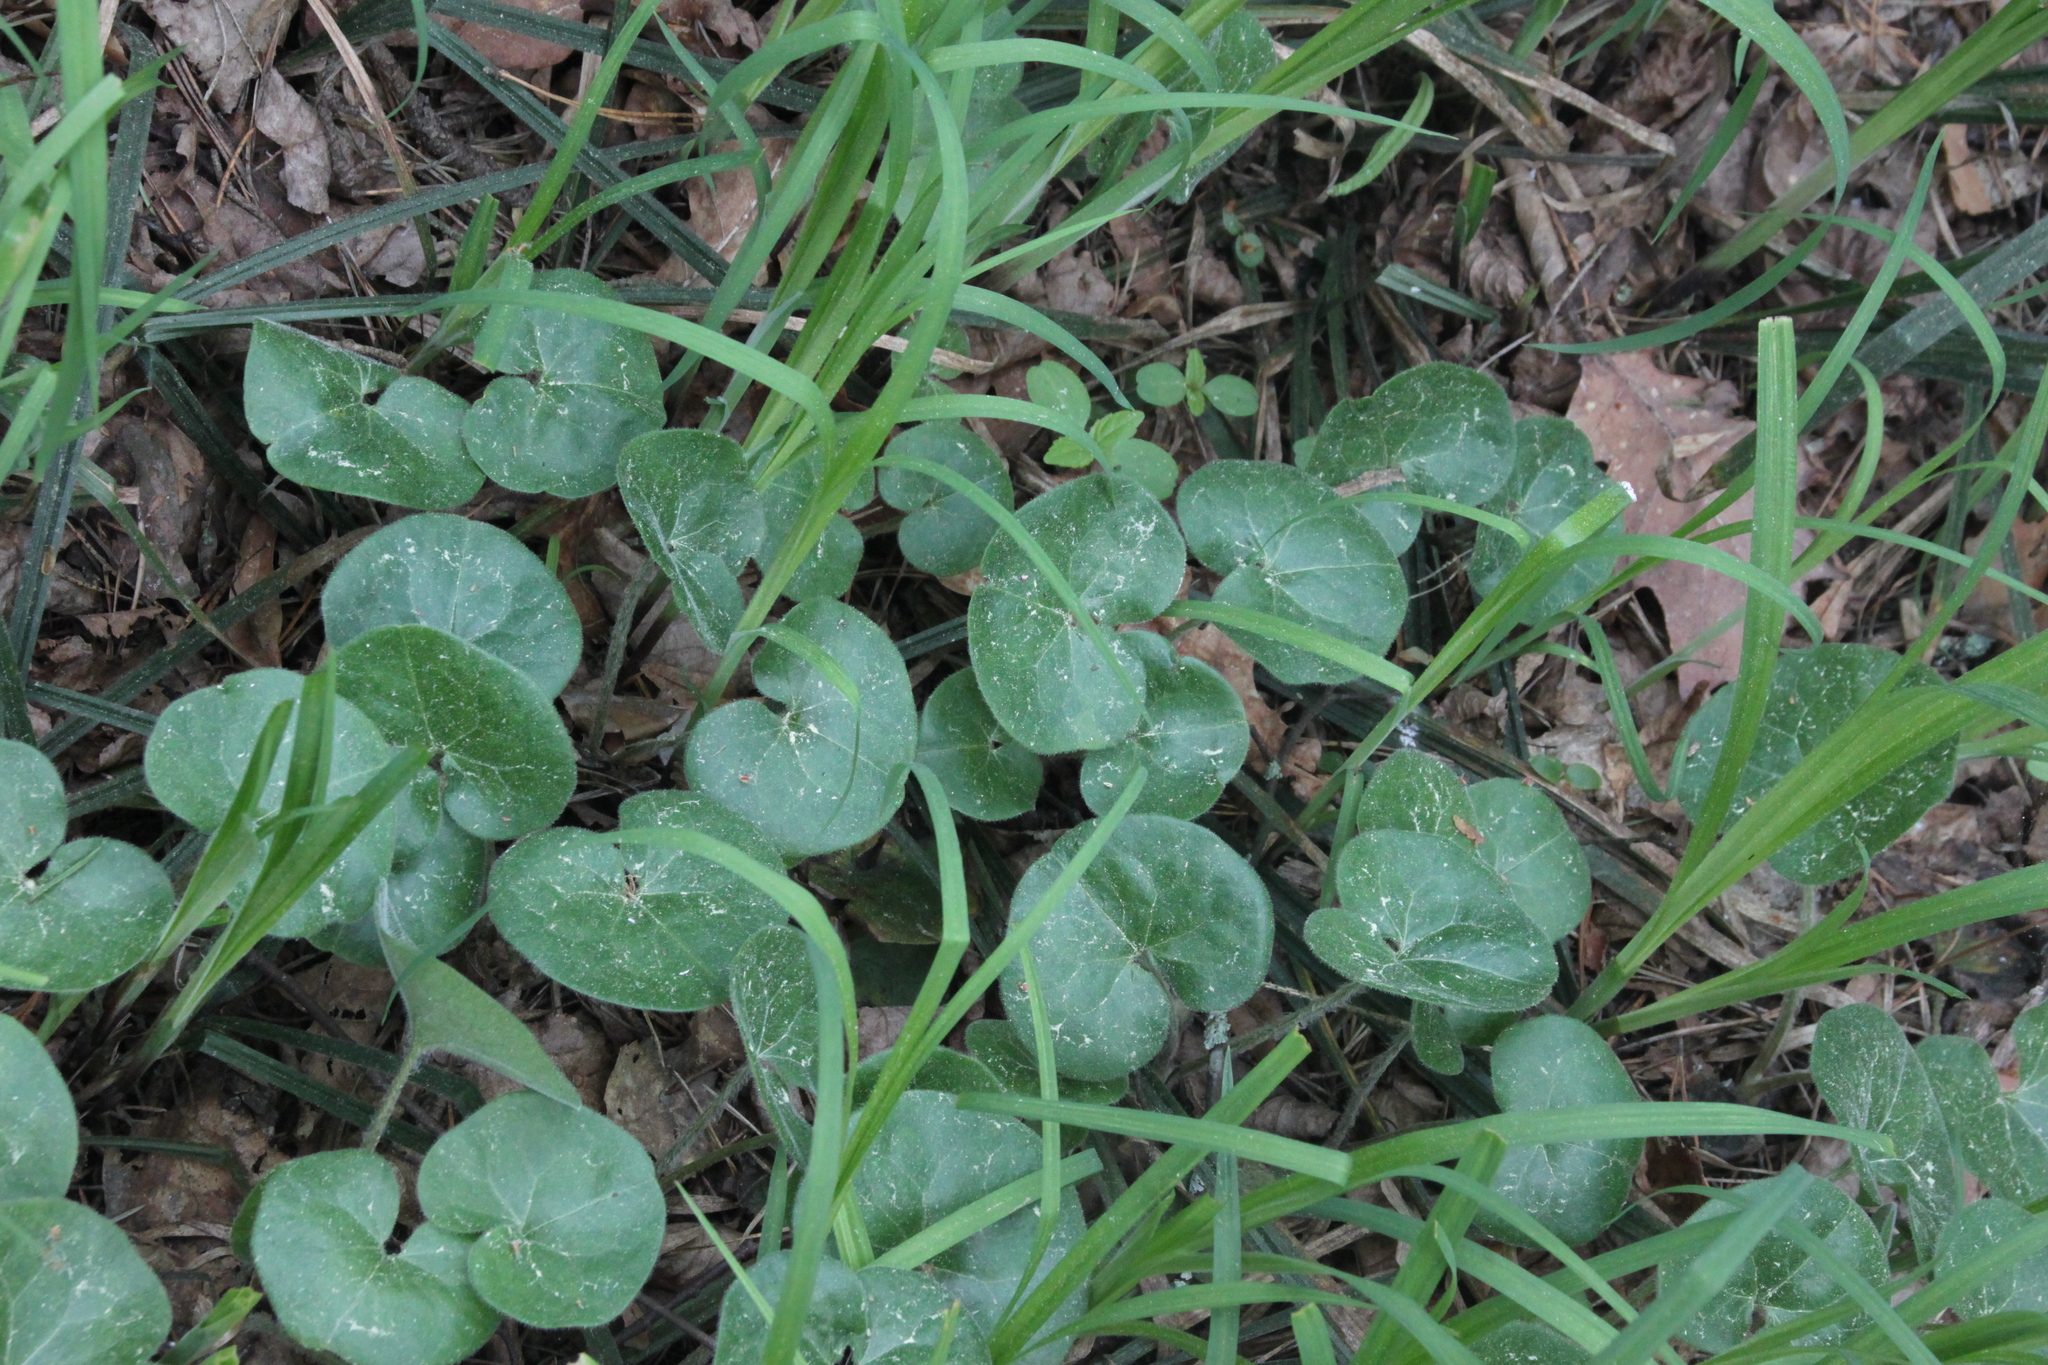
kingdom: Plantae
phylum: Tracheophyta
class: Magnoliopsida
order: Piperales
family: Aristolochiaceae
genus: Asarum
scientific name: Asarum europaeum
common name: Asarabacca
